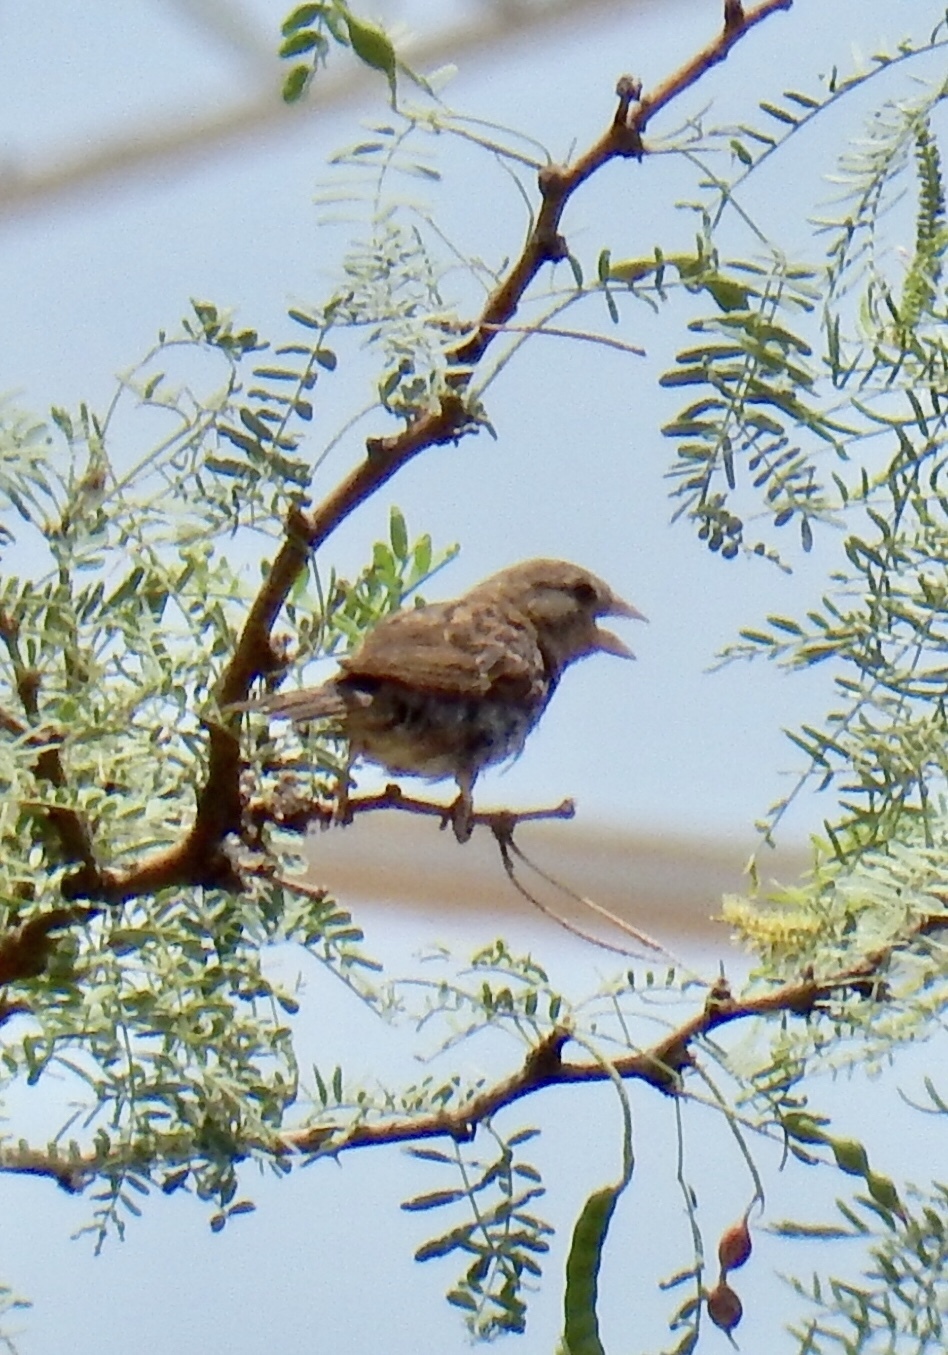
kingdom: Animalia
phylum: Chordata
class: Aves
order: Passeriformes
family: Passeridae
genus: Passer
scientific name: Passer domesticus
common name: House sparrow
